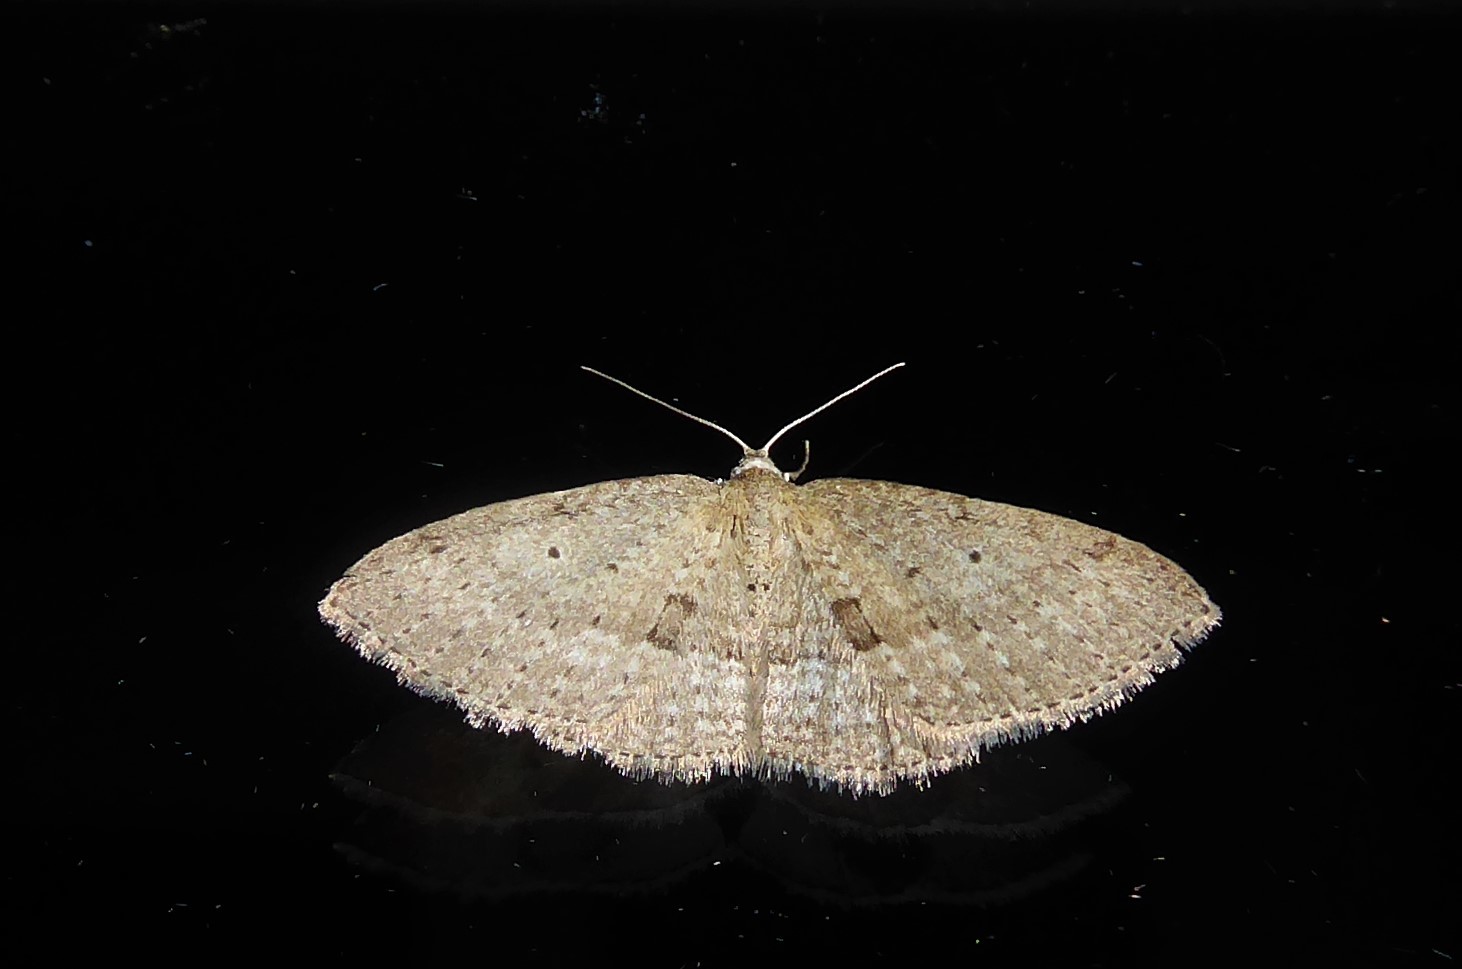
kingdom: Animalia
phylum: Arthropoda
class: Insecta
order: Lepidoptera
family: Geometridae
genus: Poecilasthena
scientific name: Poecilasthena schistaria
